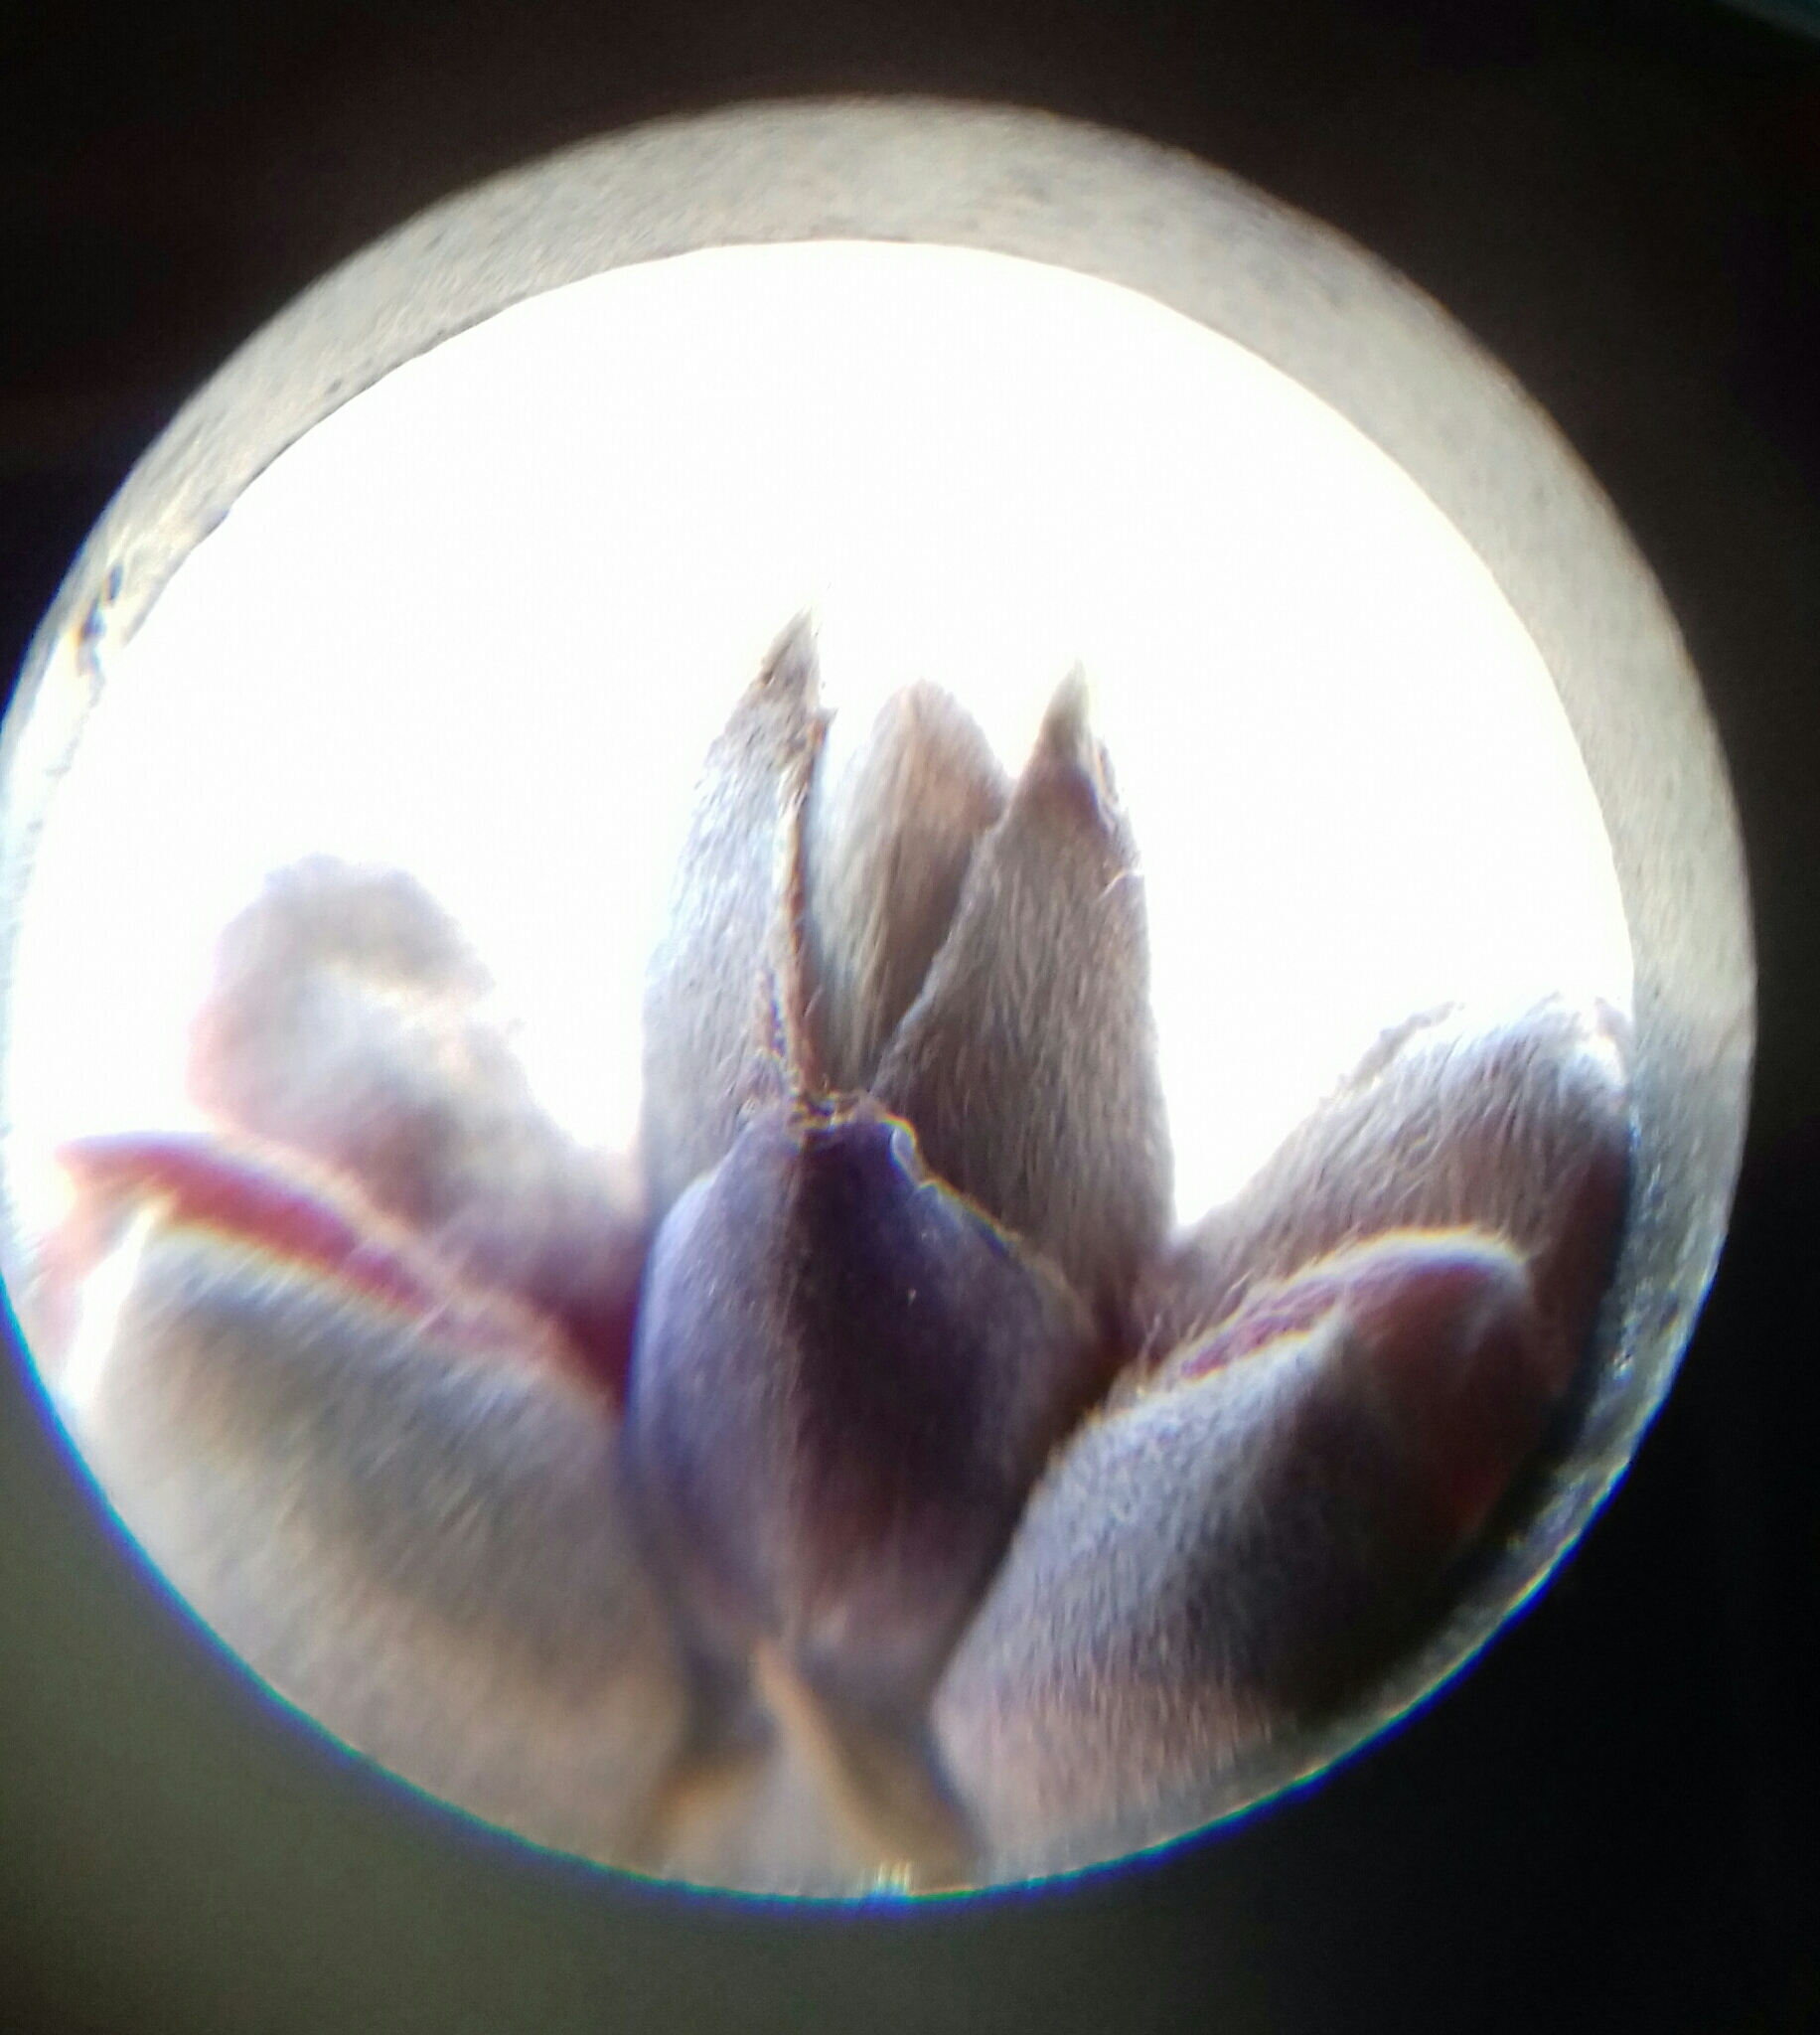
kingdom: Plantae
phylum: Tracheophyta
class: Magnoliopsida
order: Sapindales
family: Sapindaceae
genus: Acer
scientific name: Acer negundo
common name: Ashleaf maple
